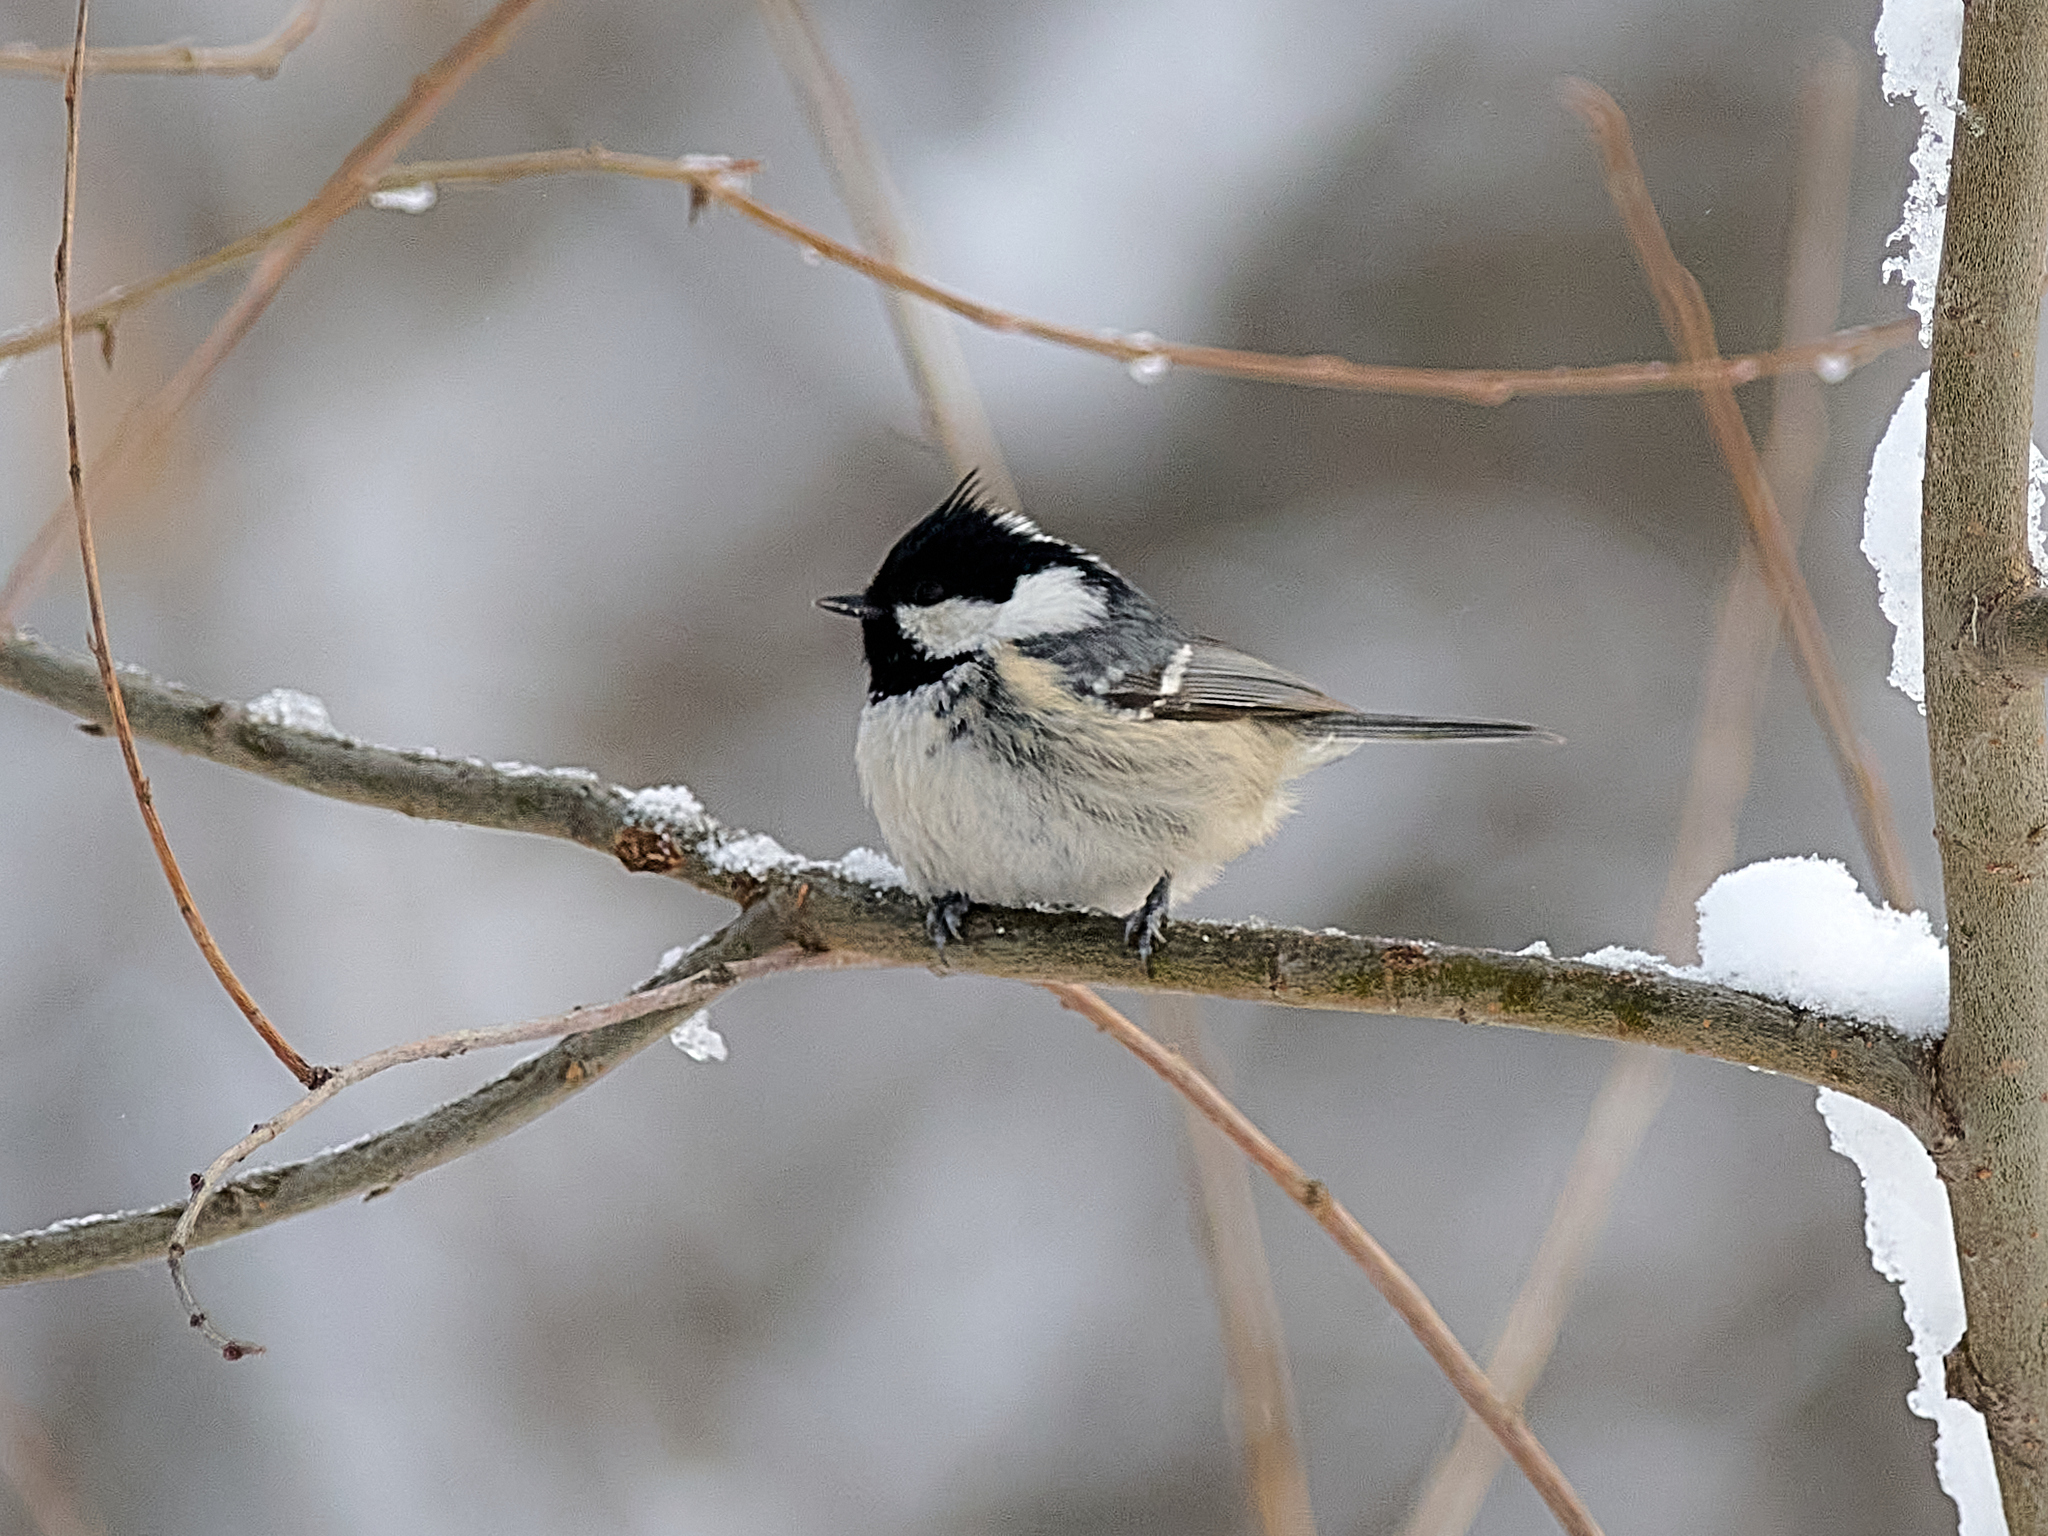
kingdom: Animalia
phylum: Chordata
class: Aves
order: Passeriformes
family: Paridae
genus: Periparus
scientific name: Periparus ater
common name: Coal tit
